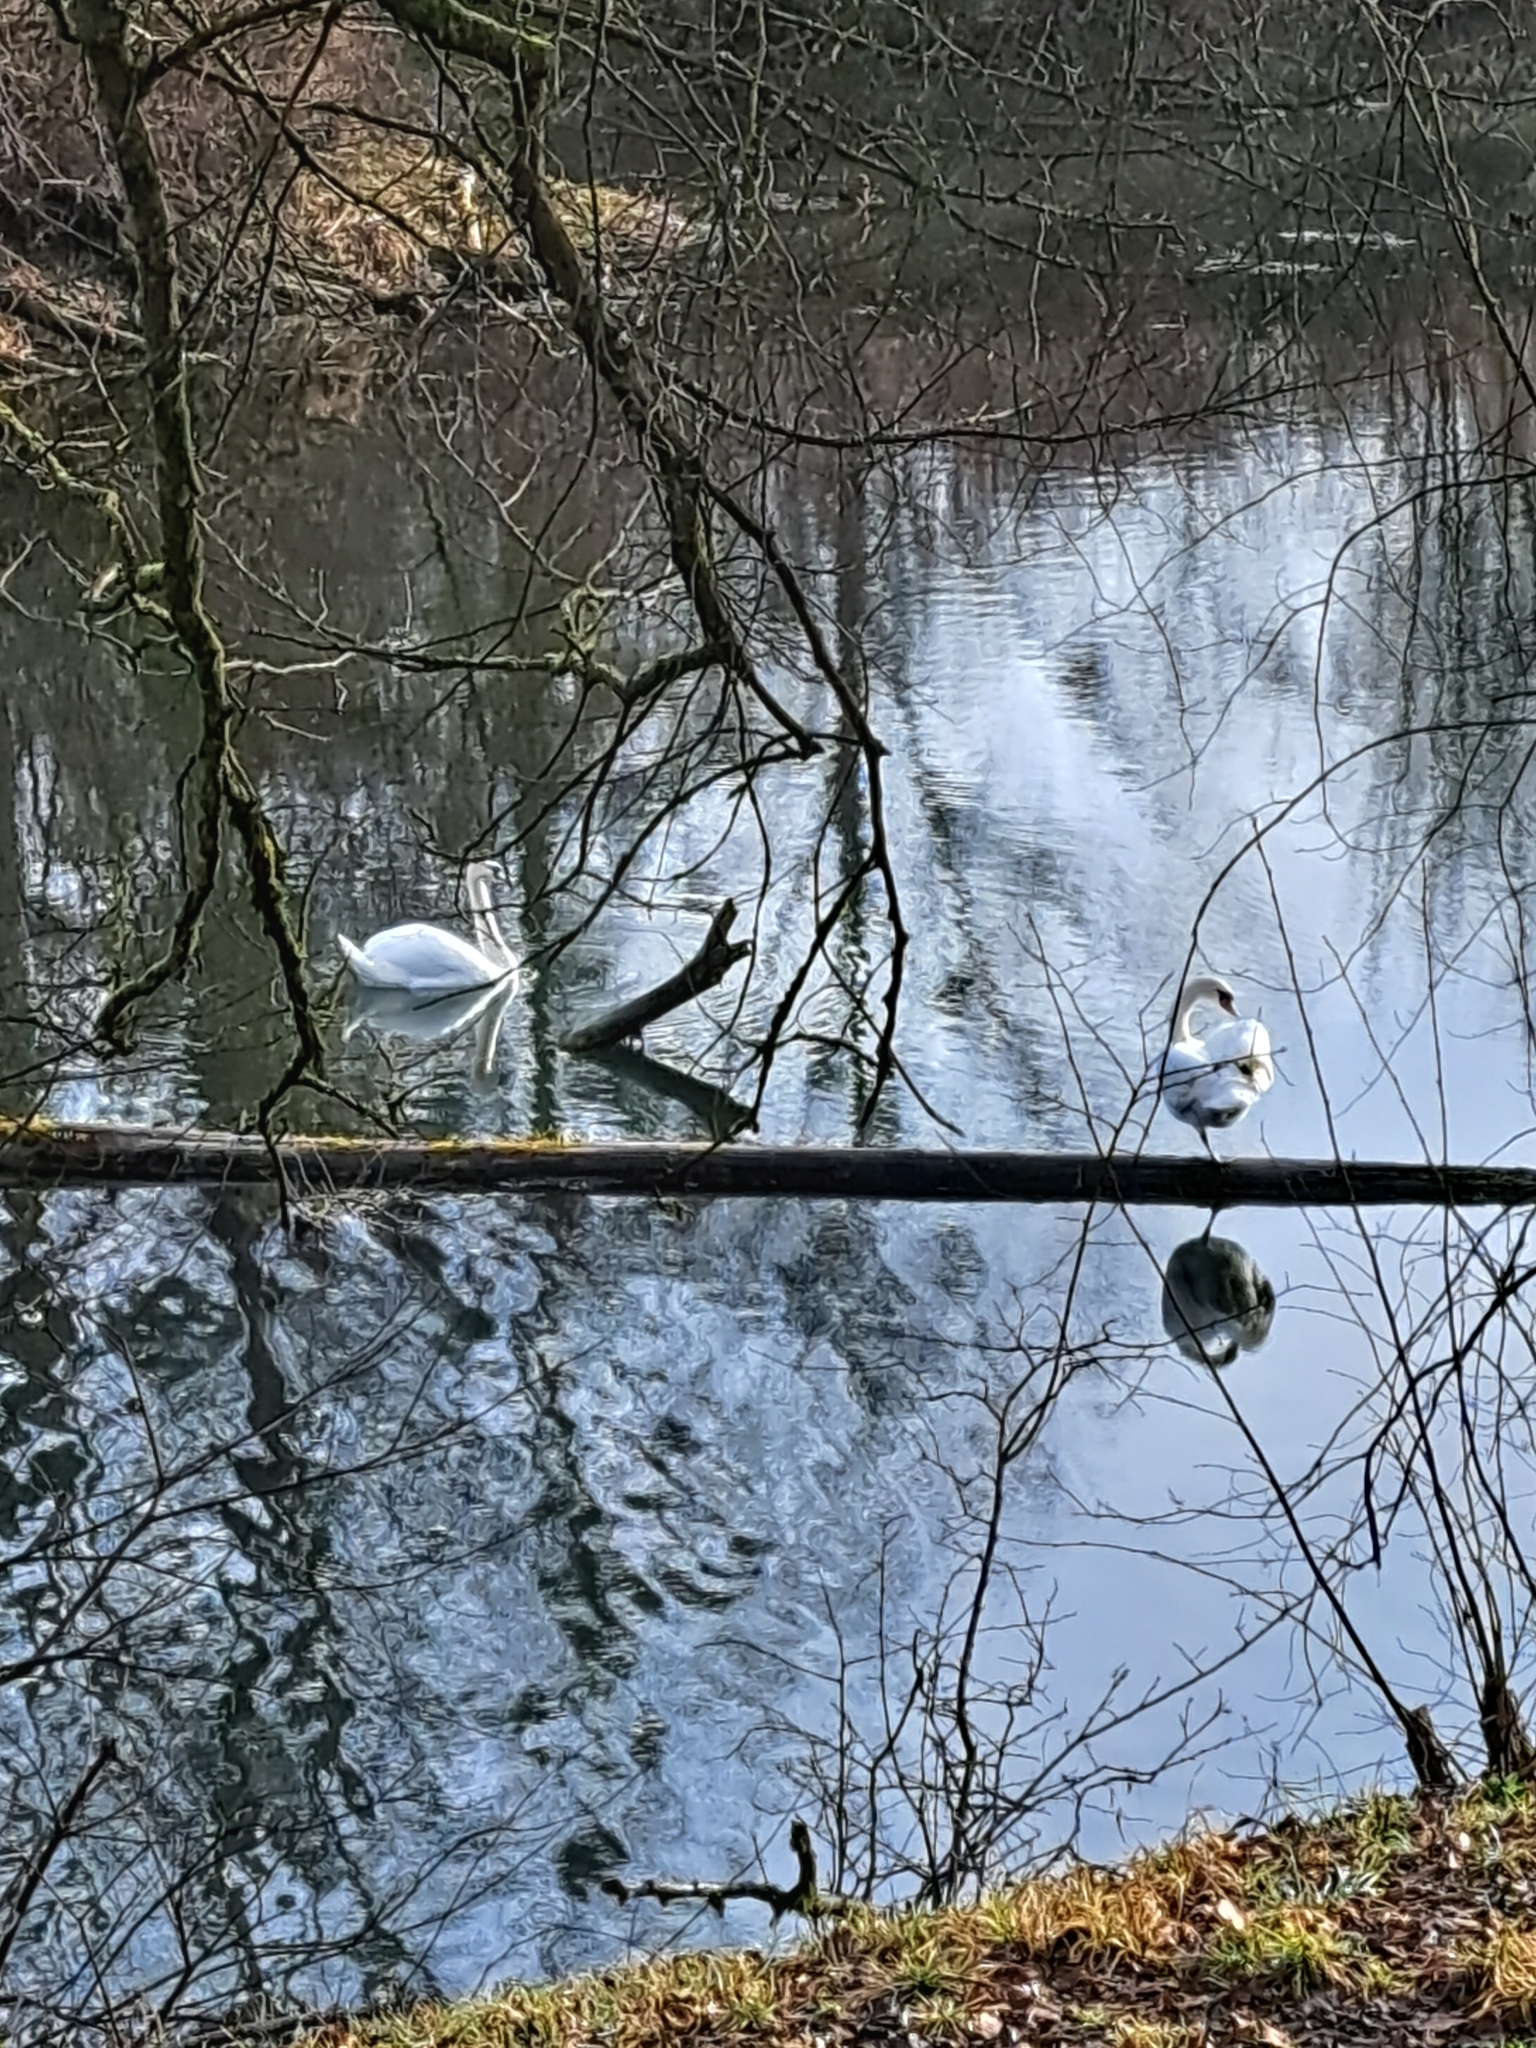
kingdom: Animalia
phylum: Chordata
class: Aves
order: Anseriformes
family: Anatidae
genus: Cygnus
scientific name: Cygnus olor
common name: Mute swan
